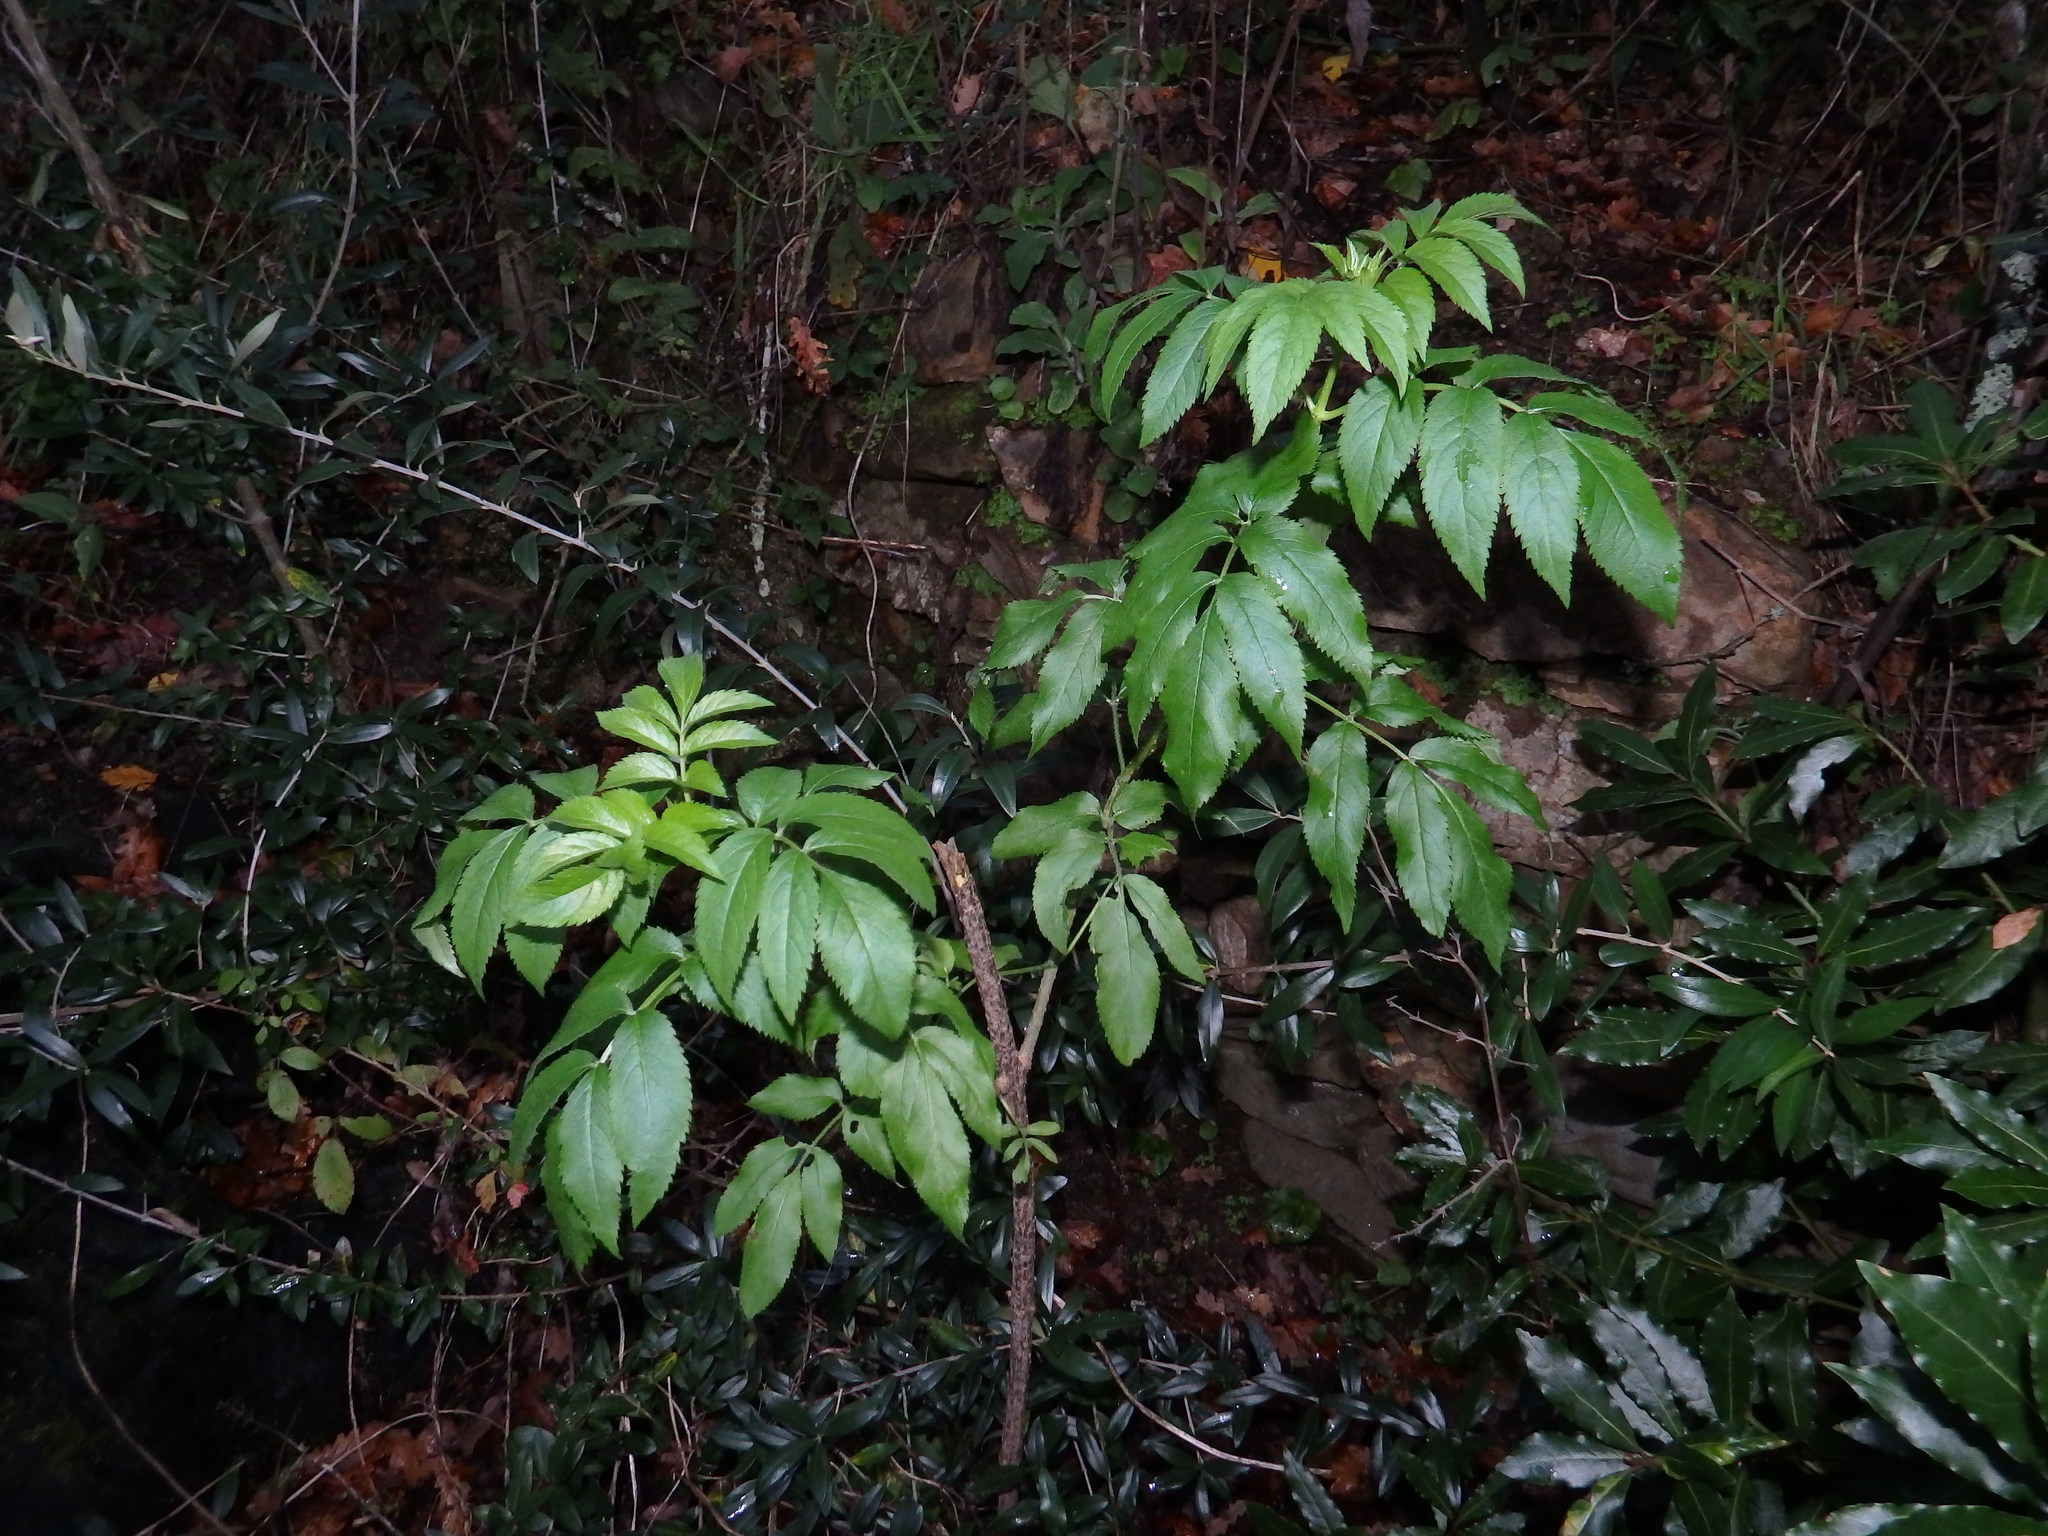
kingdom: Plantae
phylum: Tracheophyta
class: Magnoliopsida
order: Dipsacales
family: Viburnaceae
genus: Sambucus
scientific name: Sambucus nigra
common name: Elder
